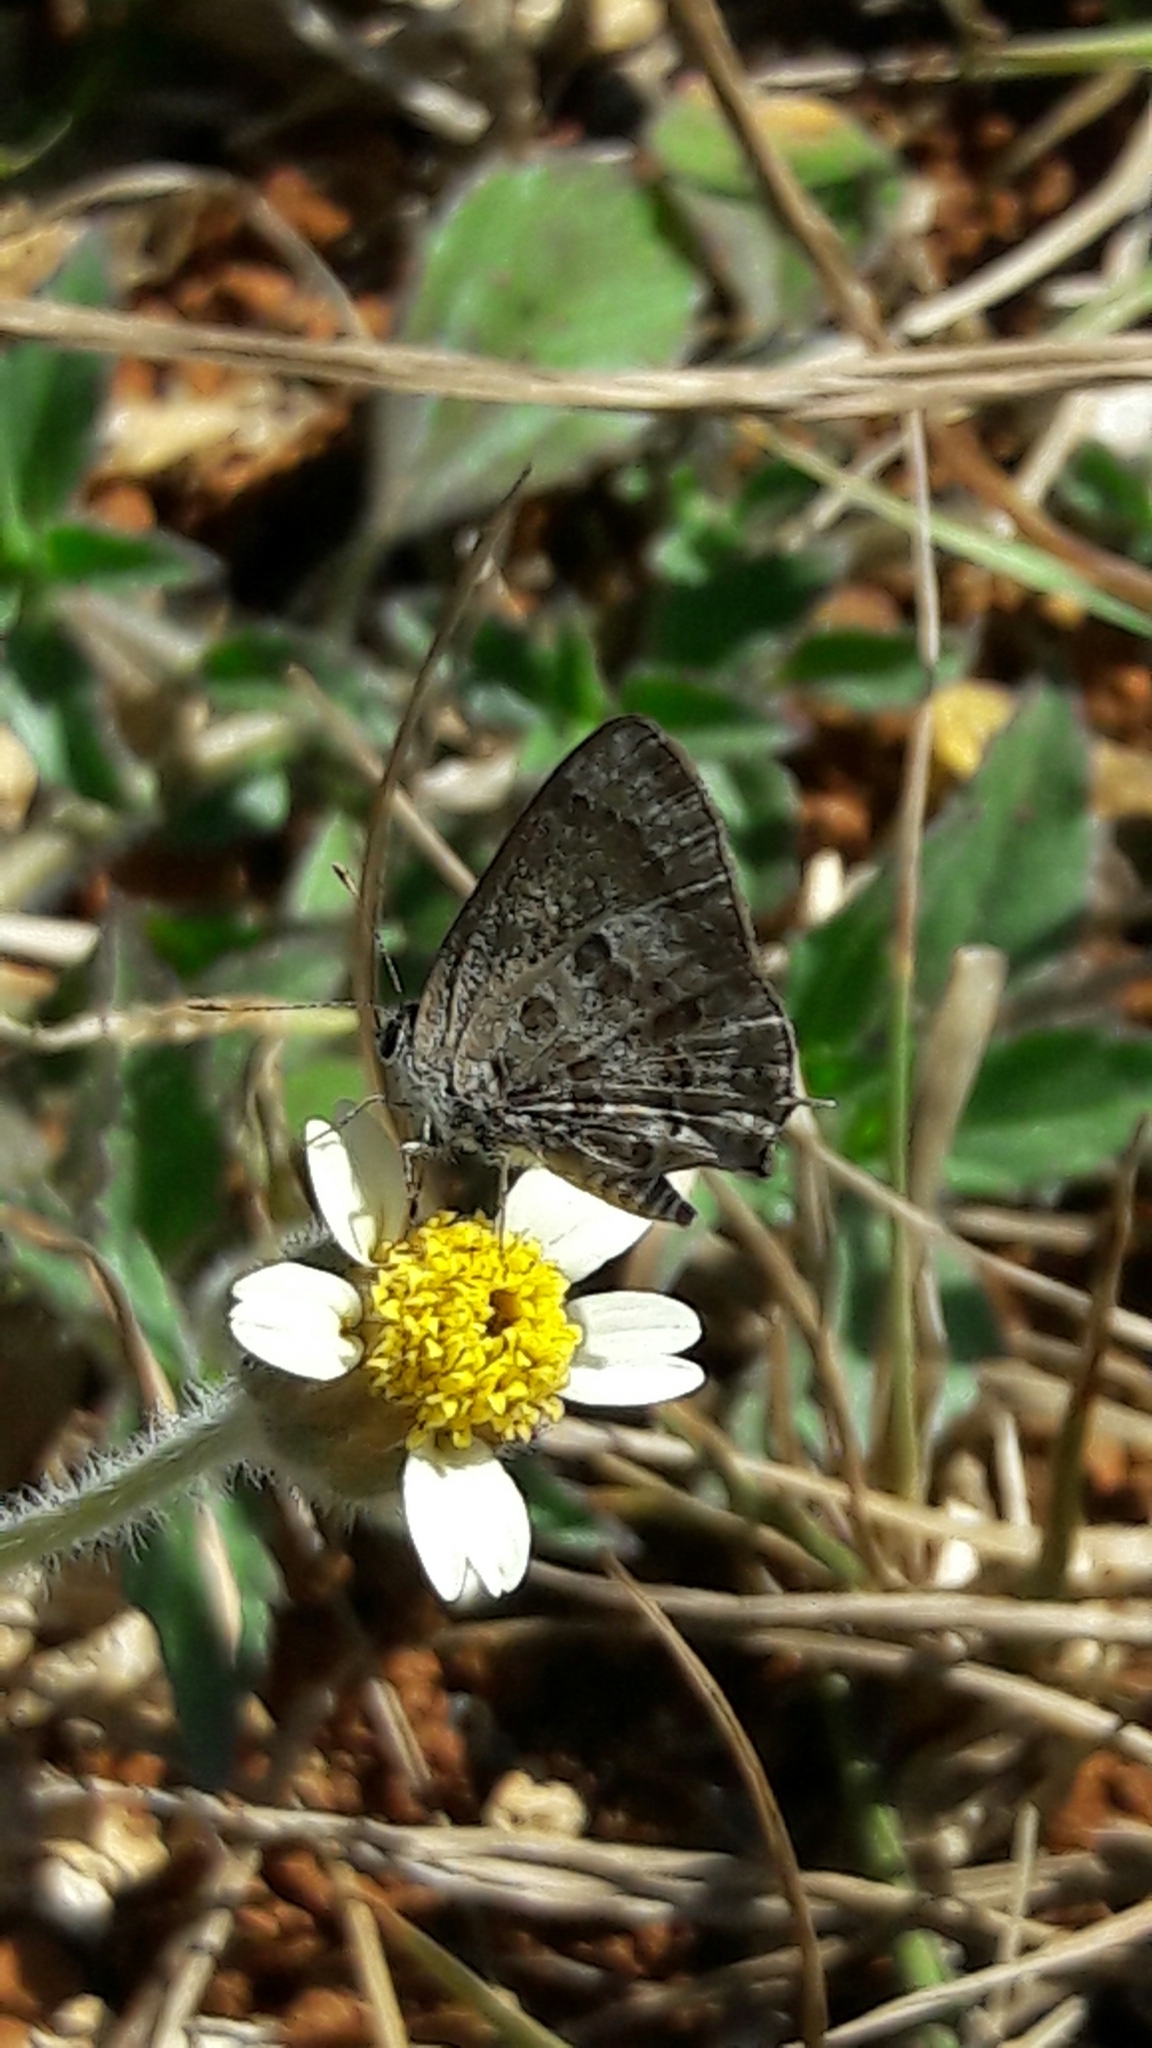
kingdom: Animalia
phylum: Arthropoda
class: Insecta
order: Lepidoptera
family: Lycaenidae
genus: Strymon
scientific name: Strymon astiocha
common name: Gray-spotted scrub-hairstreak
